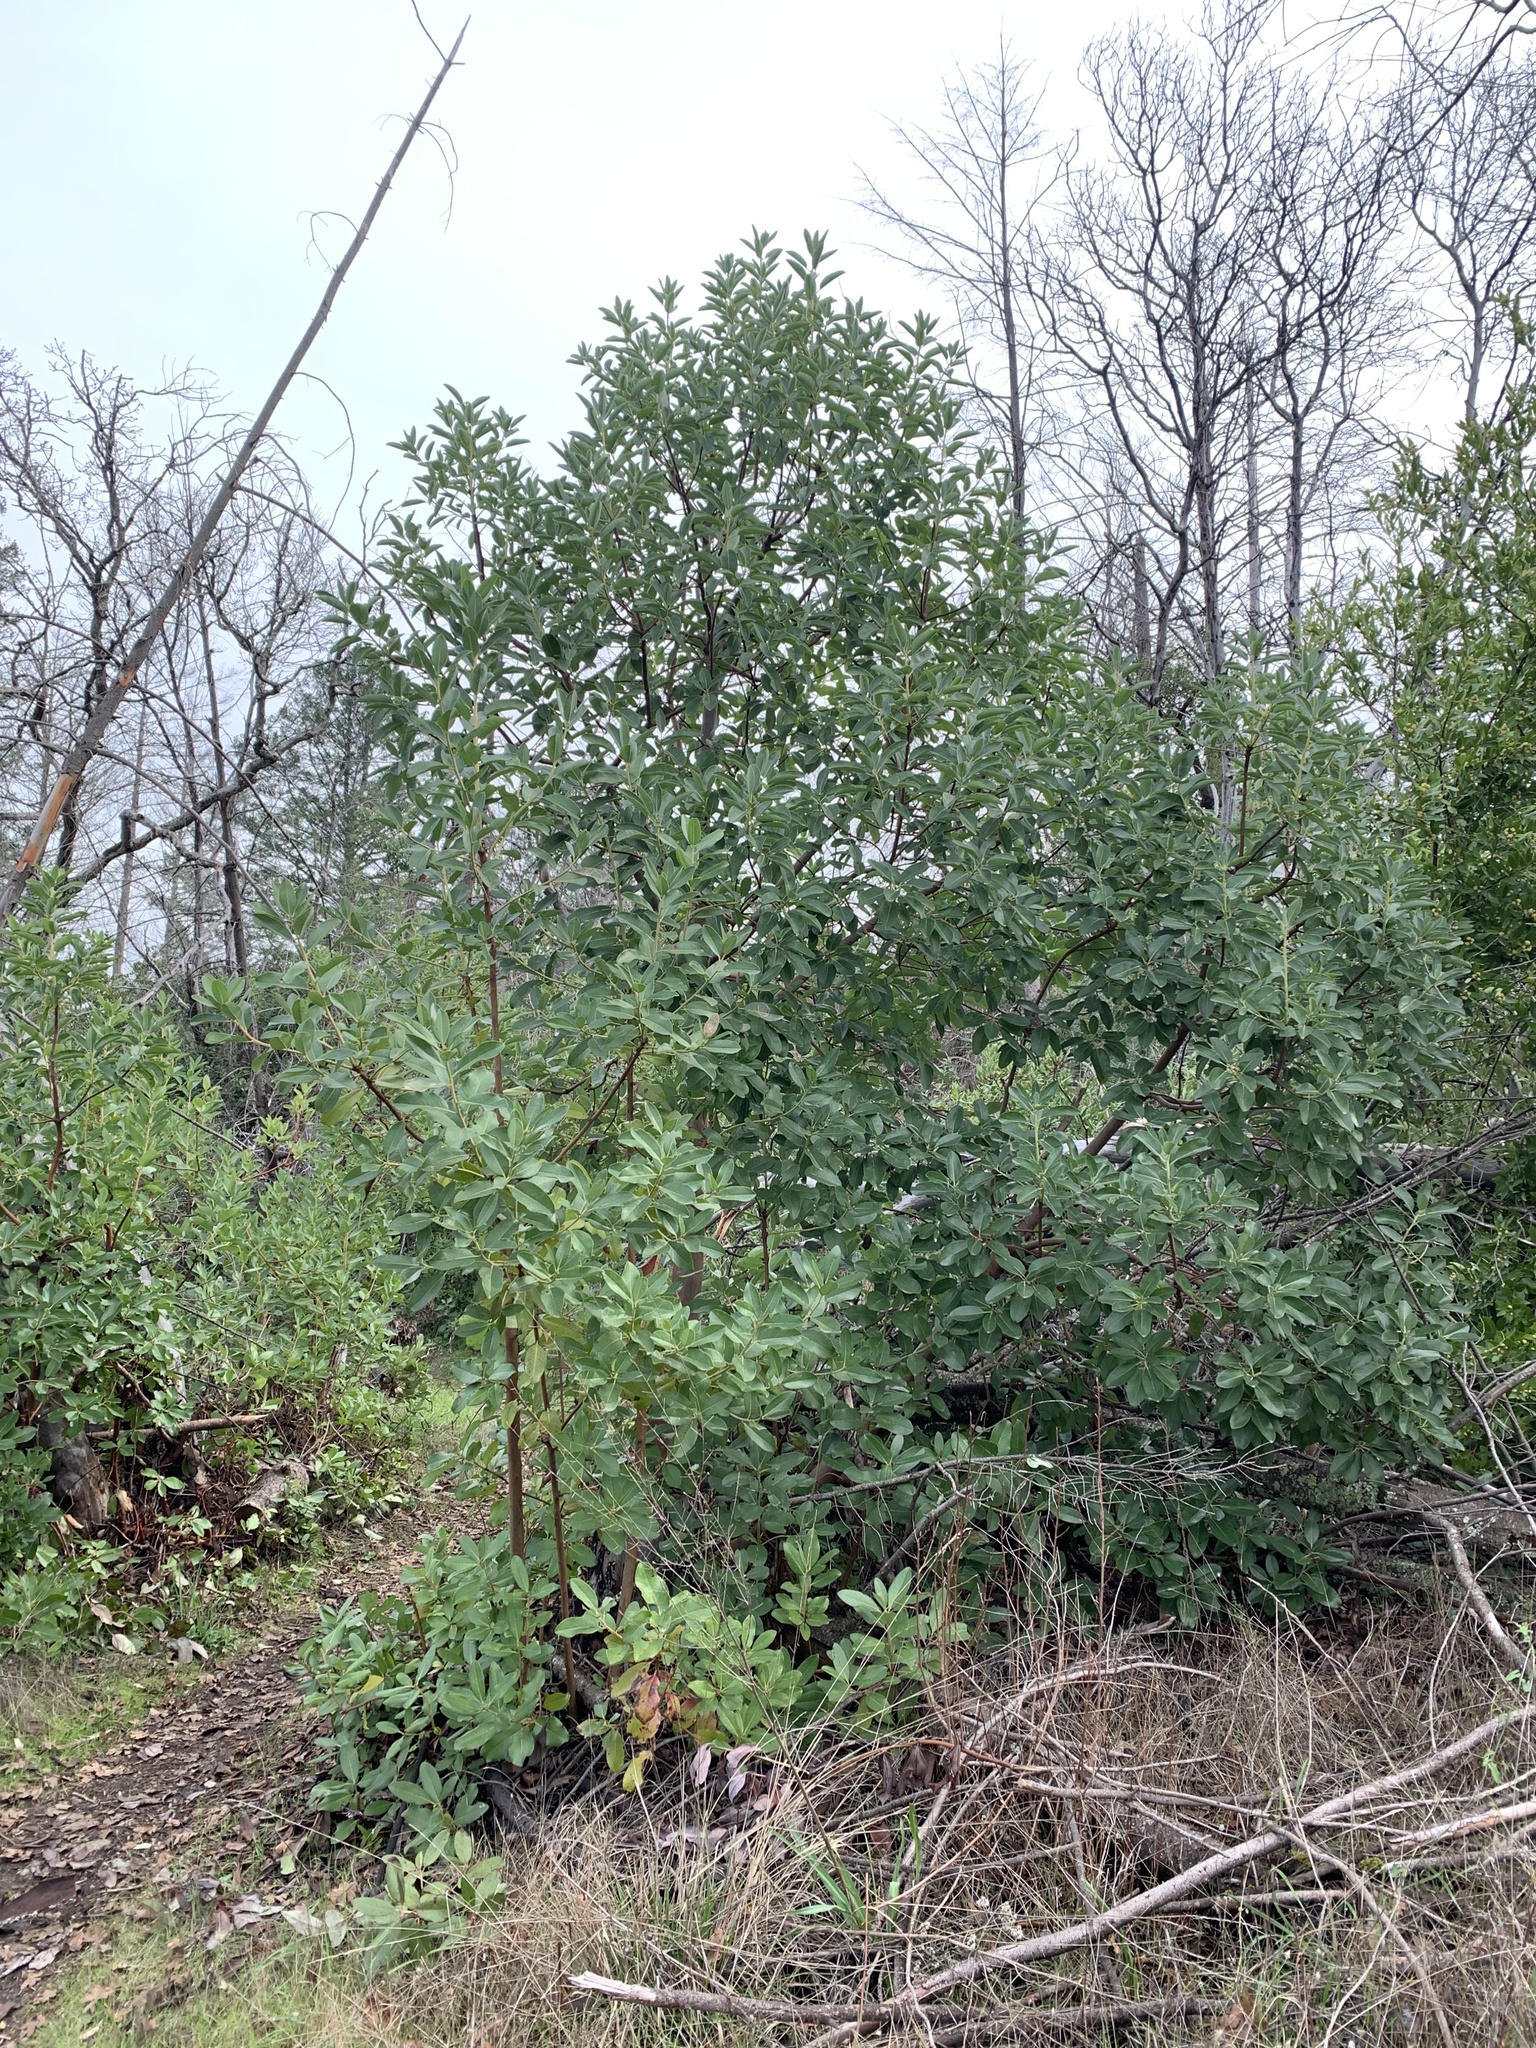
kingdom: Plantae
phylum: Tracheophyta
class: Magnoliopsida
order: Ericales
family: Ericaceae
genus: Arbutus
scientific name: Arbutus menziesii
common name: Pacific madrone
